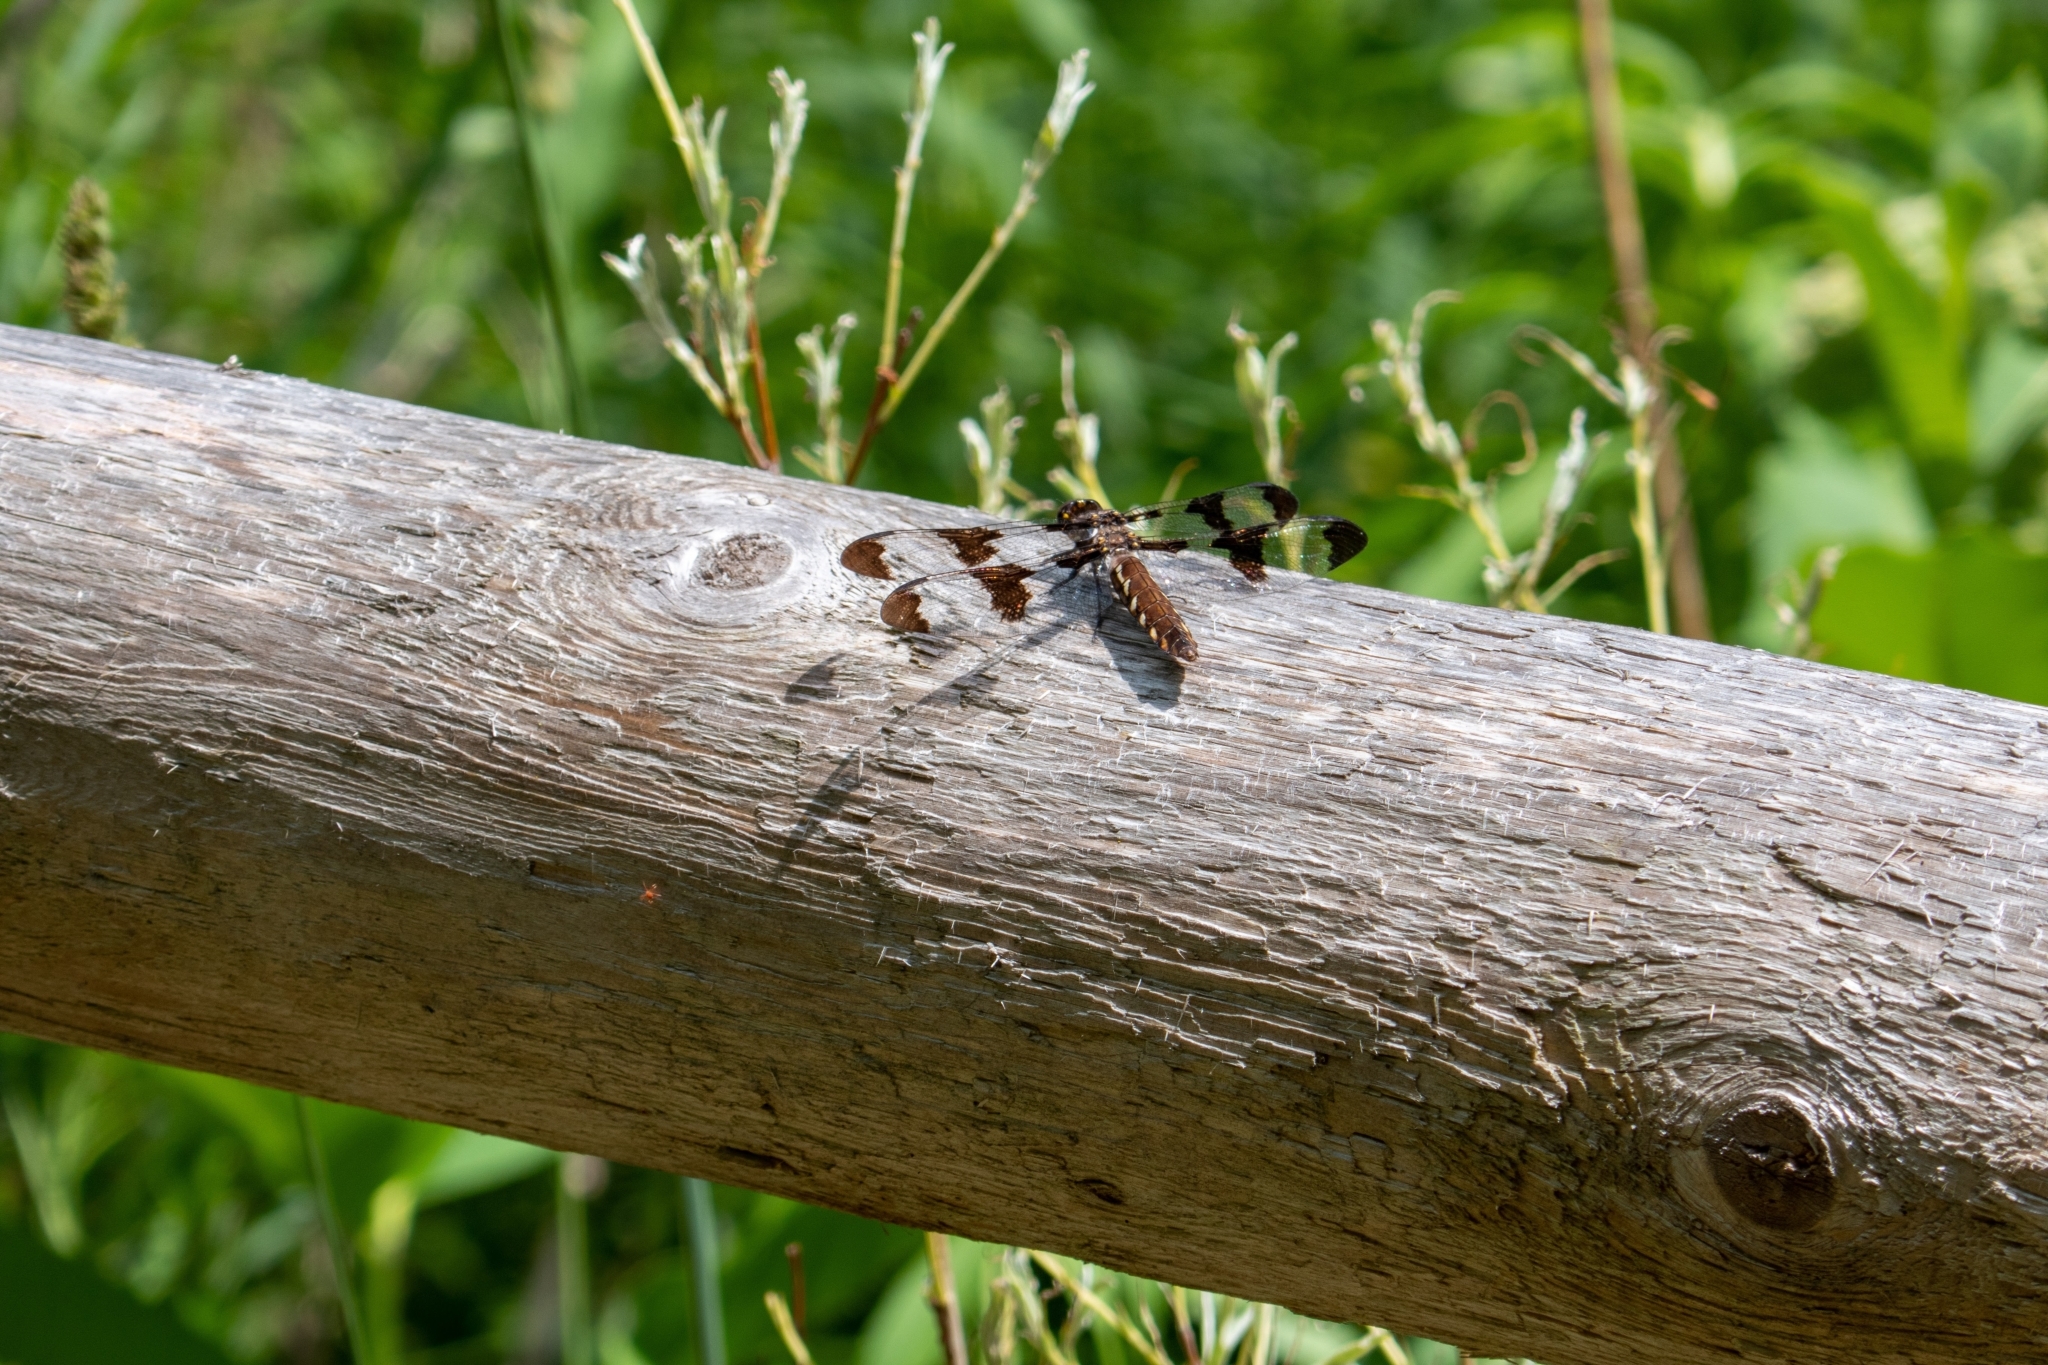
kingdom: Animalia
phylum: Arthropoda
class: Insecta
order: Odonata
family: Libellulidae
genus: Plathemis
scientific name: Plathemis lydia
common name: Common whitetail
